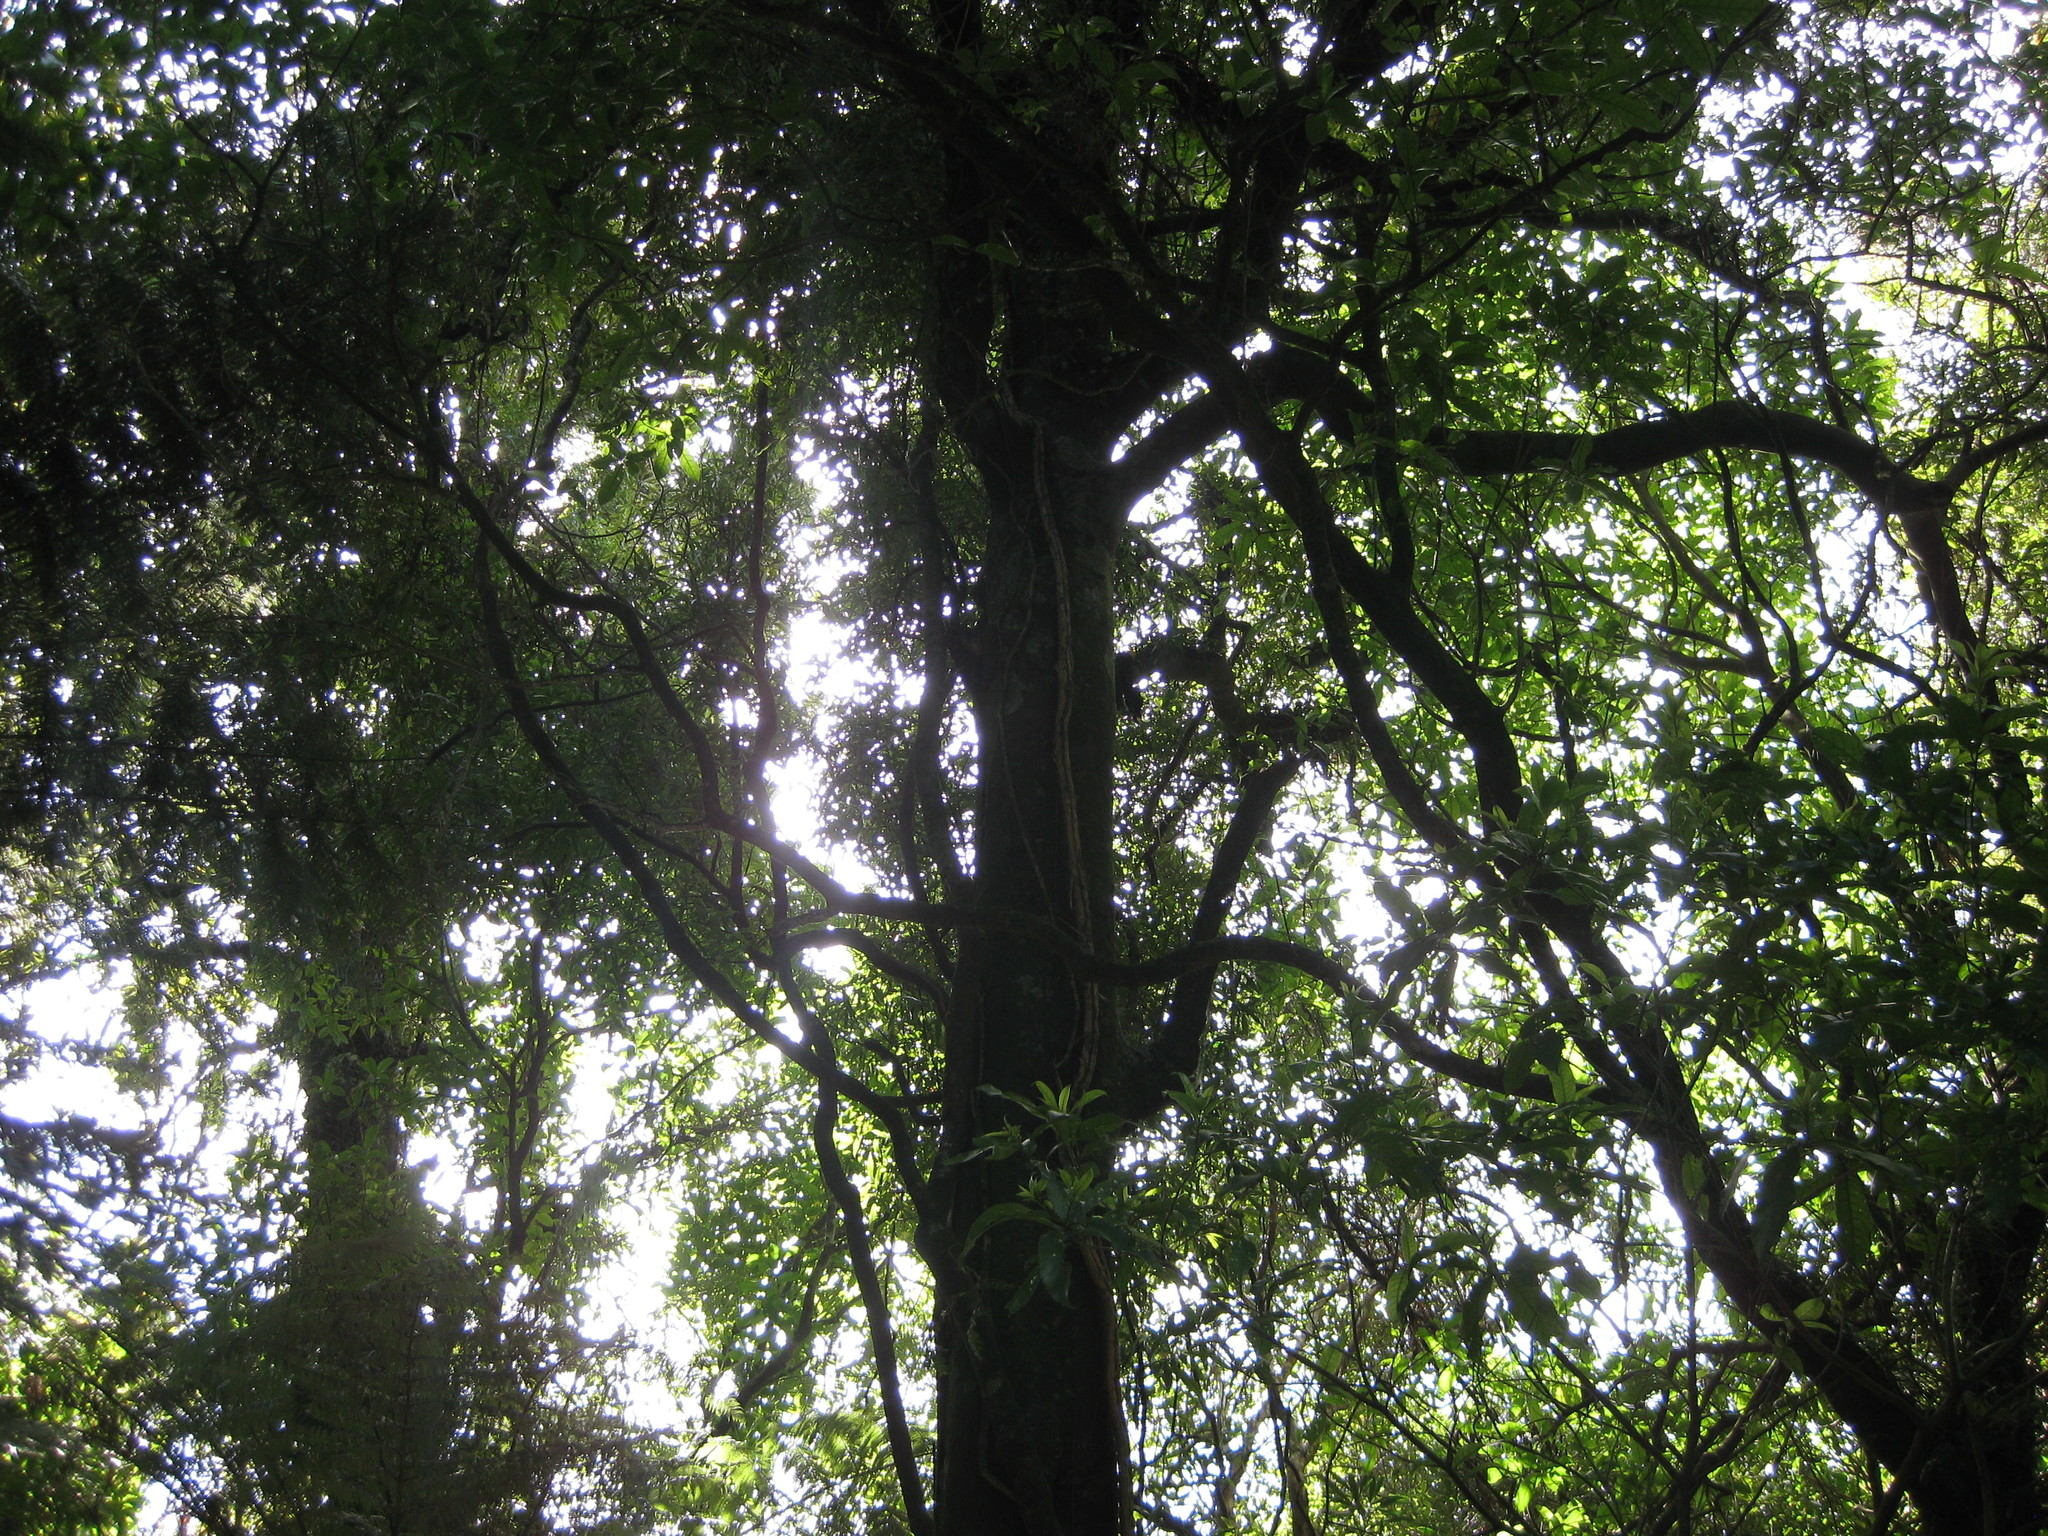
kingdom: Plantae
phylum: Tracheophyta
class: Magnoliopsida
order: Malpighiales
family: Passifloraceae
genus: Passiflora
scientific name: Passiflora tetrandra
